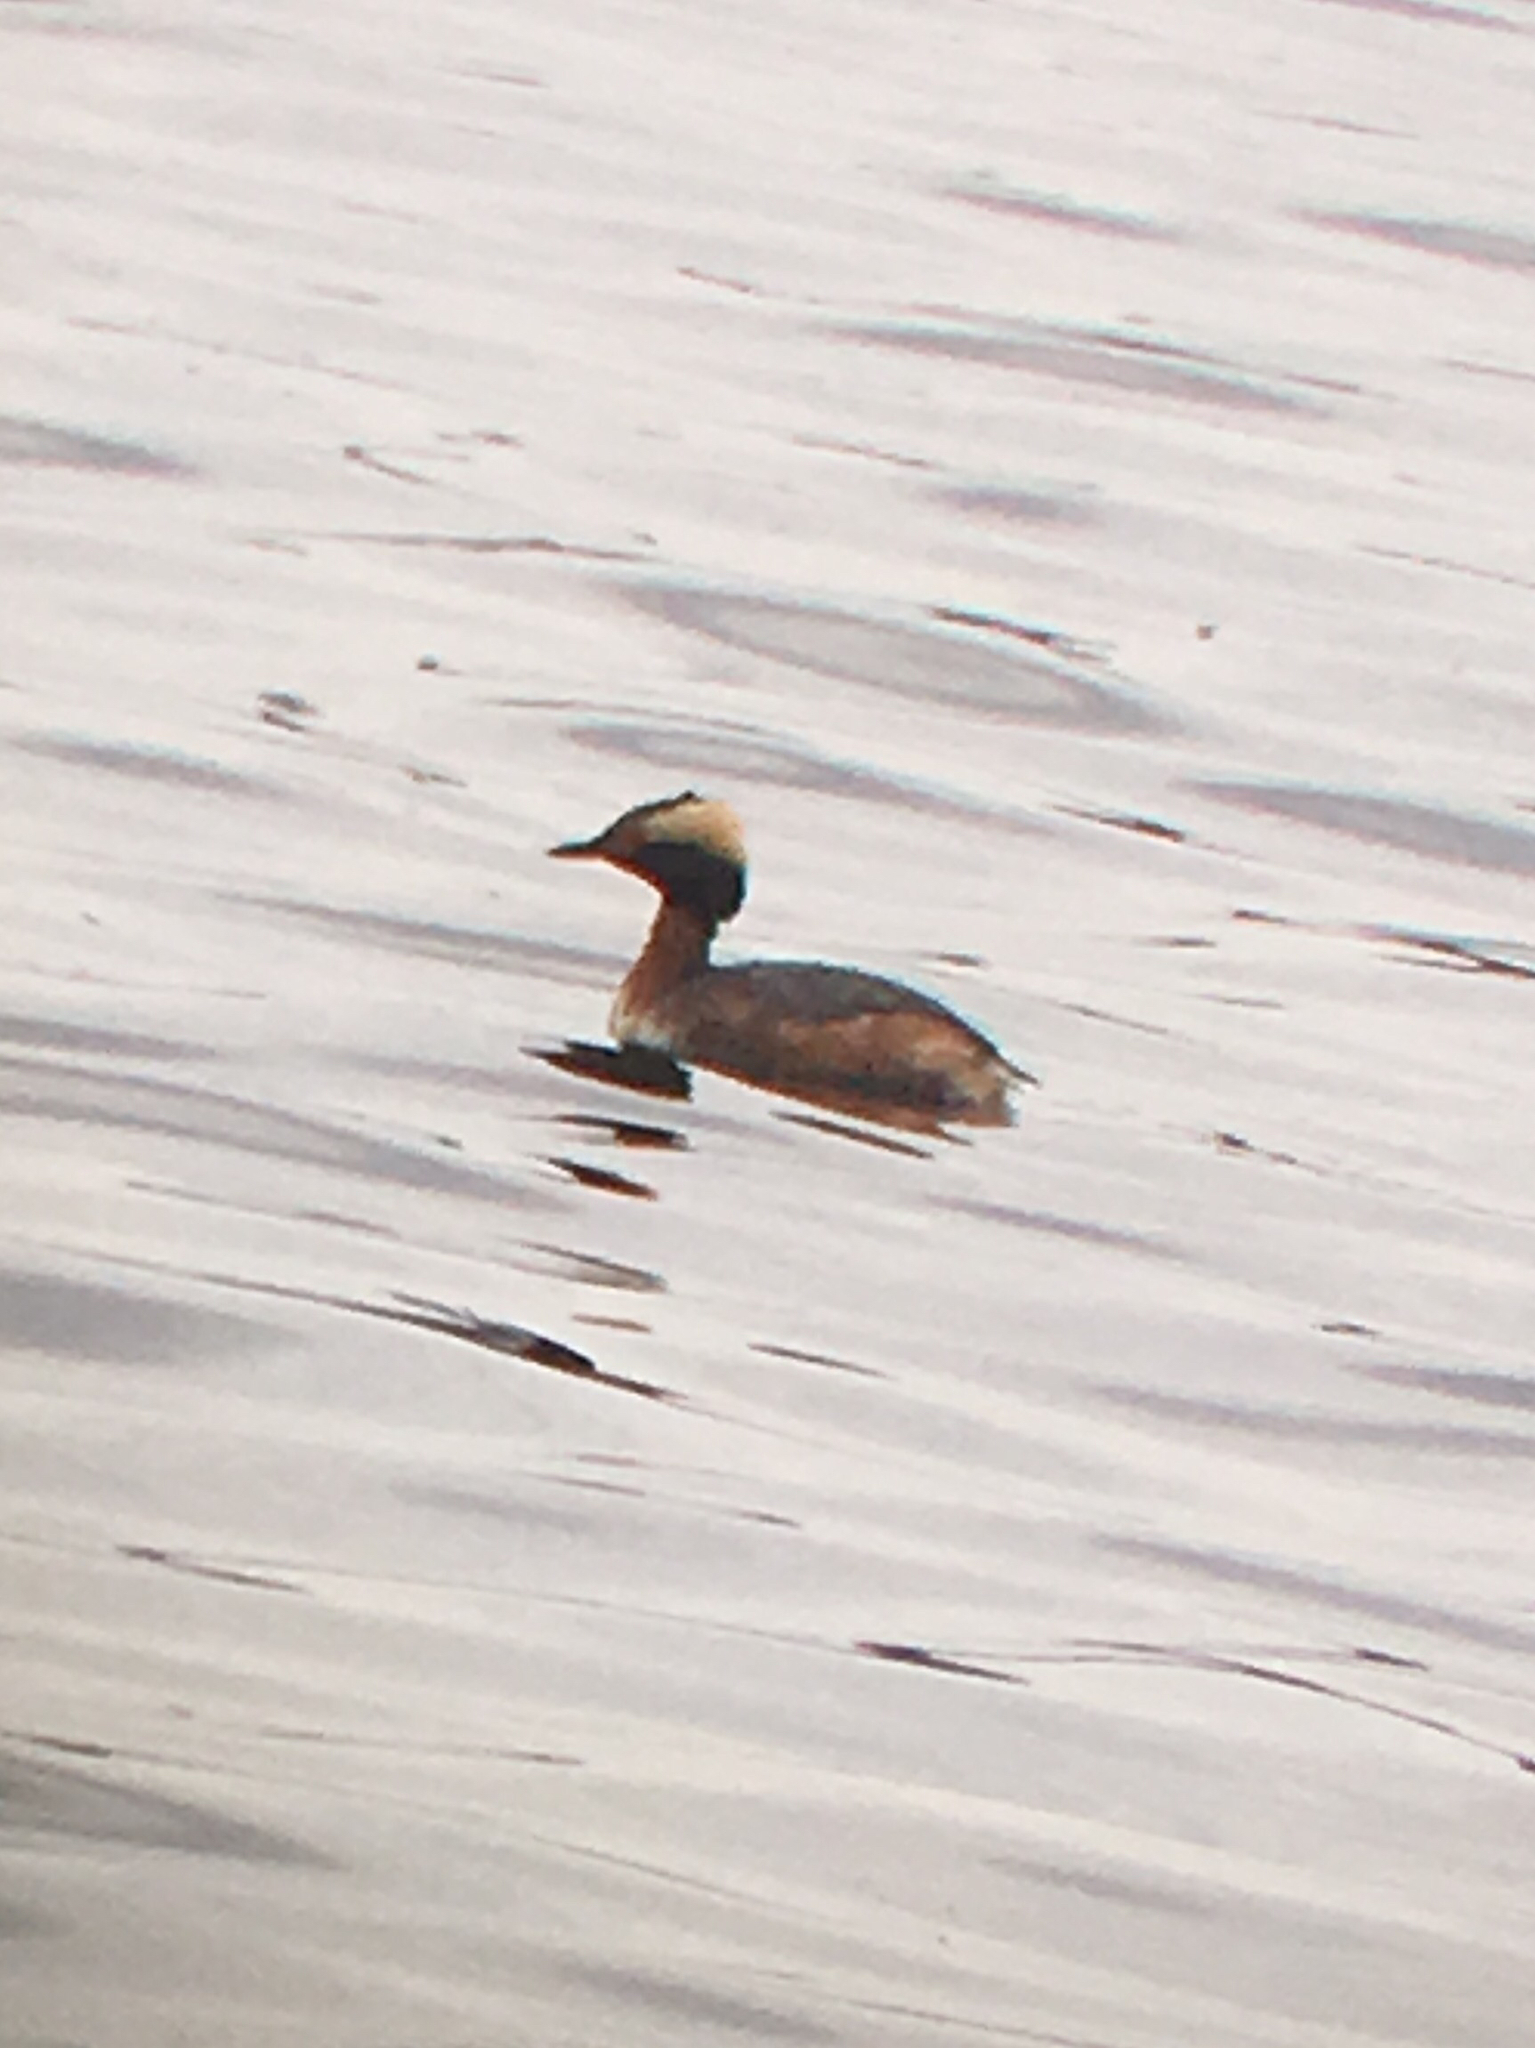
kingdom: Animalia
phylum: Chordata
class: Aves
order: Podicipediformes
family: Podicipedidae
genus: Podiceps
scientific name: Podiceps auritus
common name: Horned grebe
